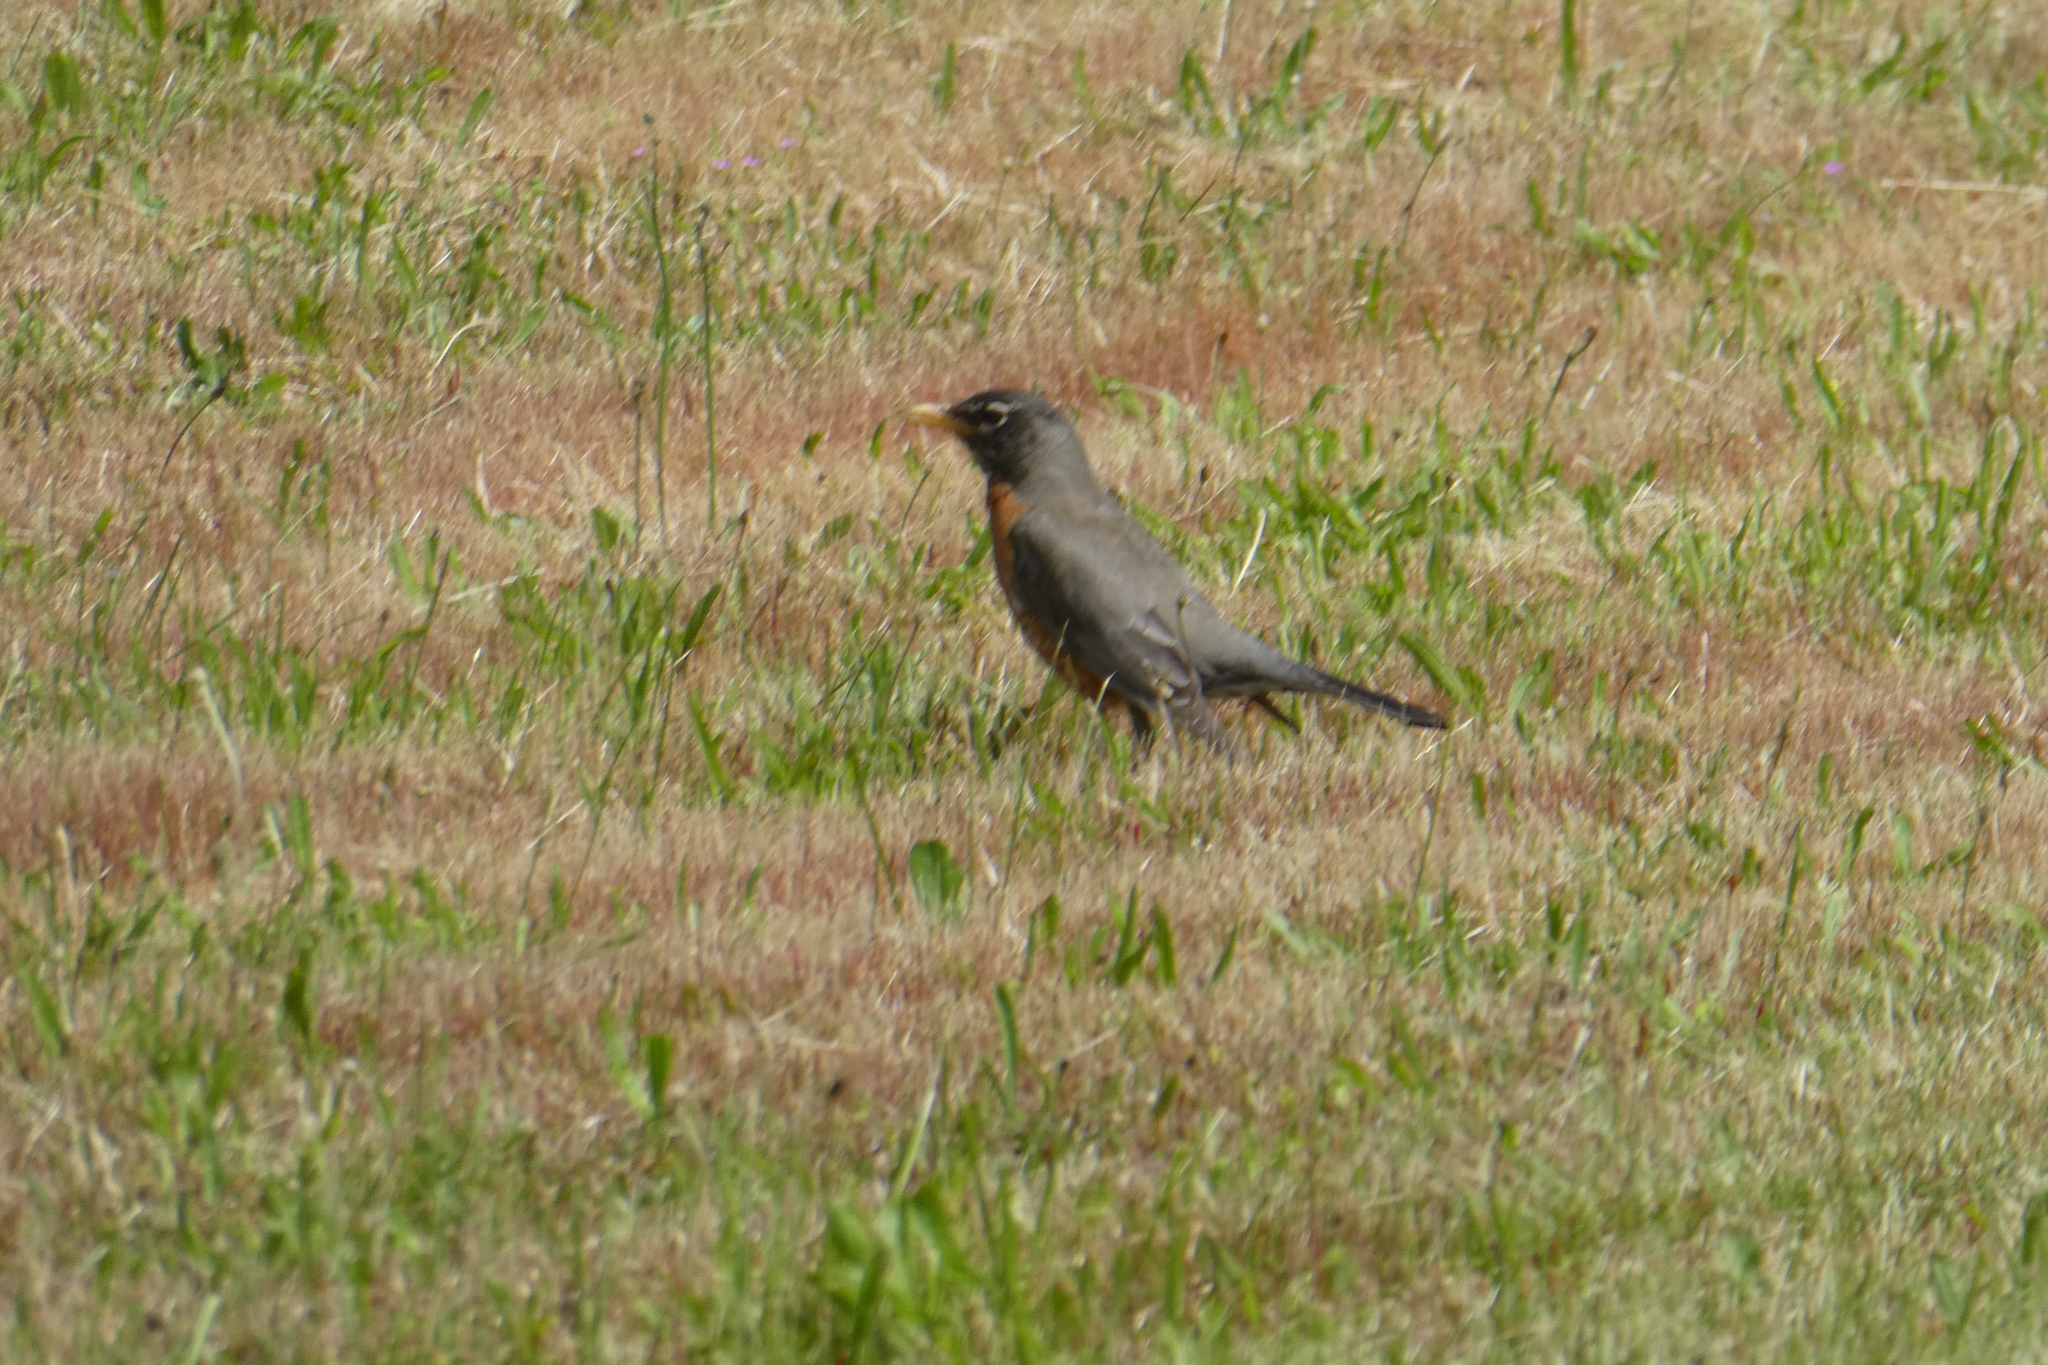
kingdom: Animalia
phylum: Chordata
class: Aves
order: Passeriformes
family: Turdidae
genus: Turdus
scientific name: Turdus migratorius
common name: American robin
